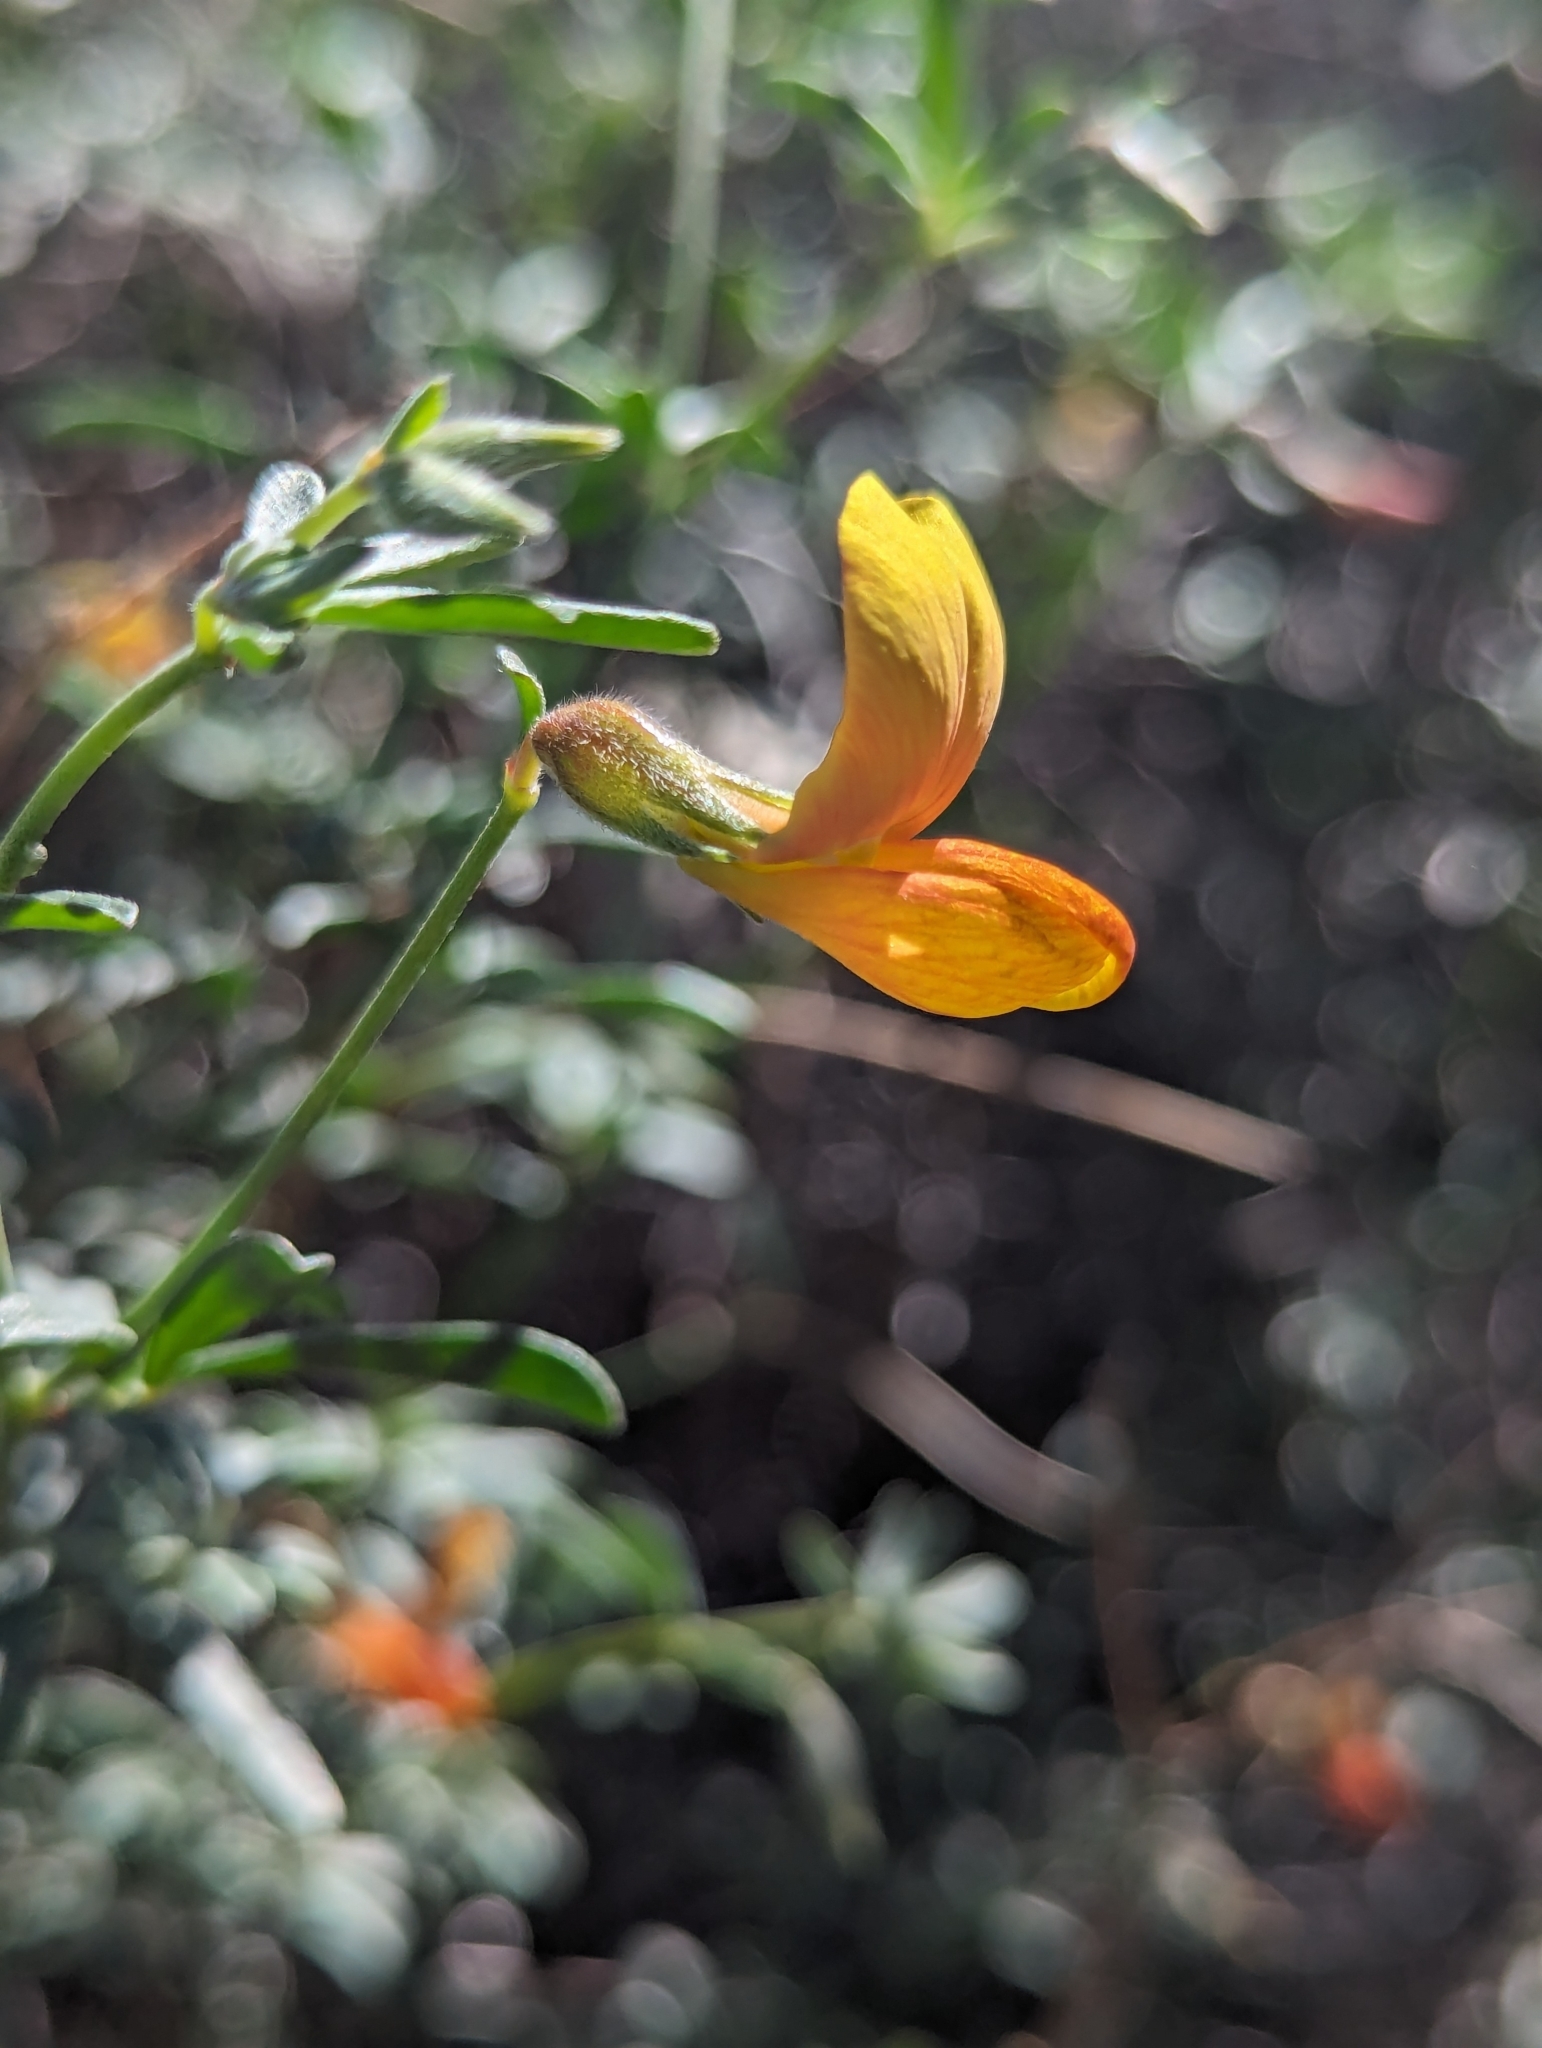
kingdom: Plantae
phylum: Tracheophyta
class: Magnoliopsida
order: Fabales
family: Fabaceae
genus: Acmispon
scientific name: Acmispon rigidus
